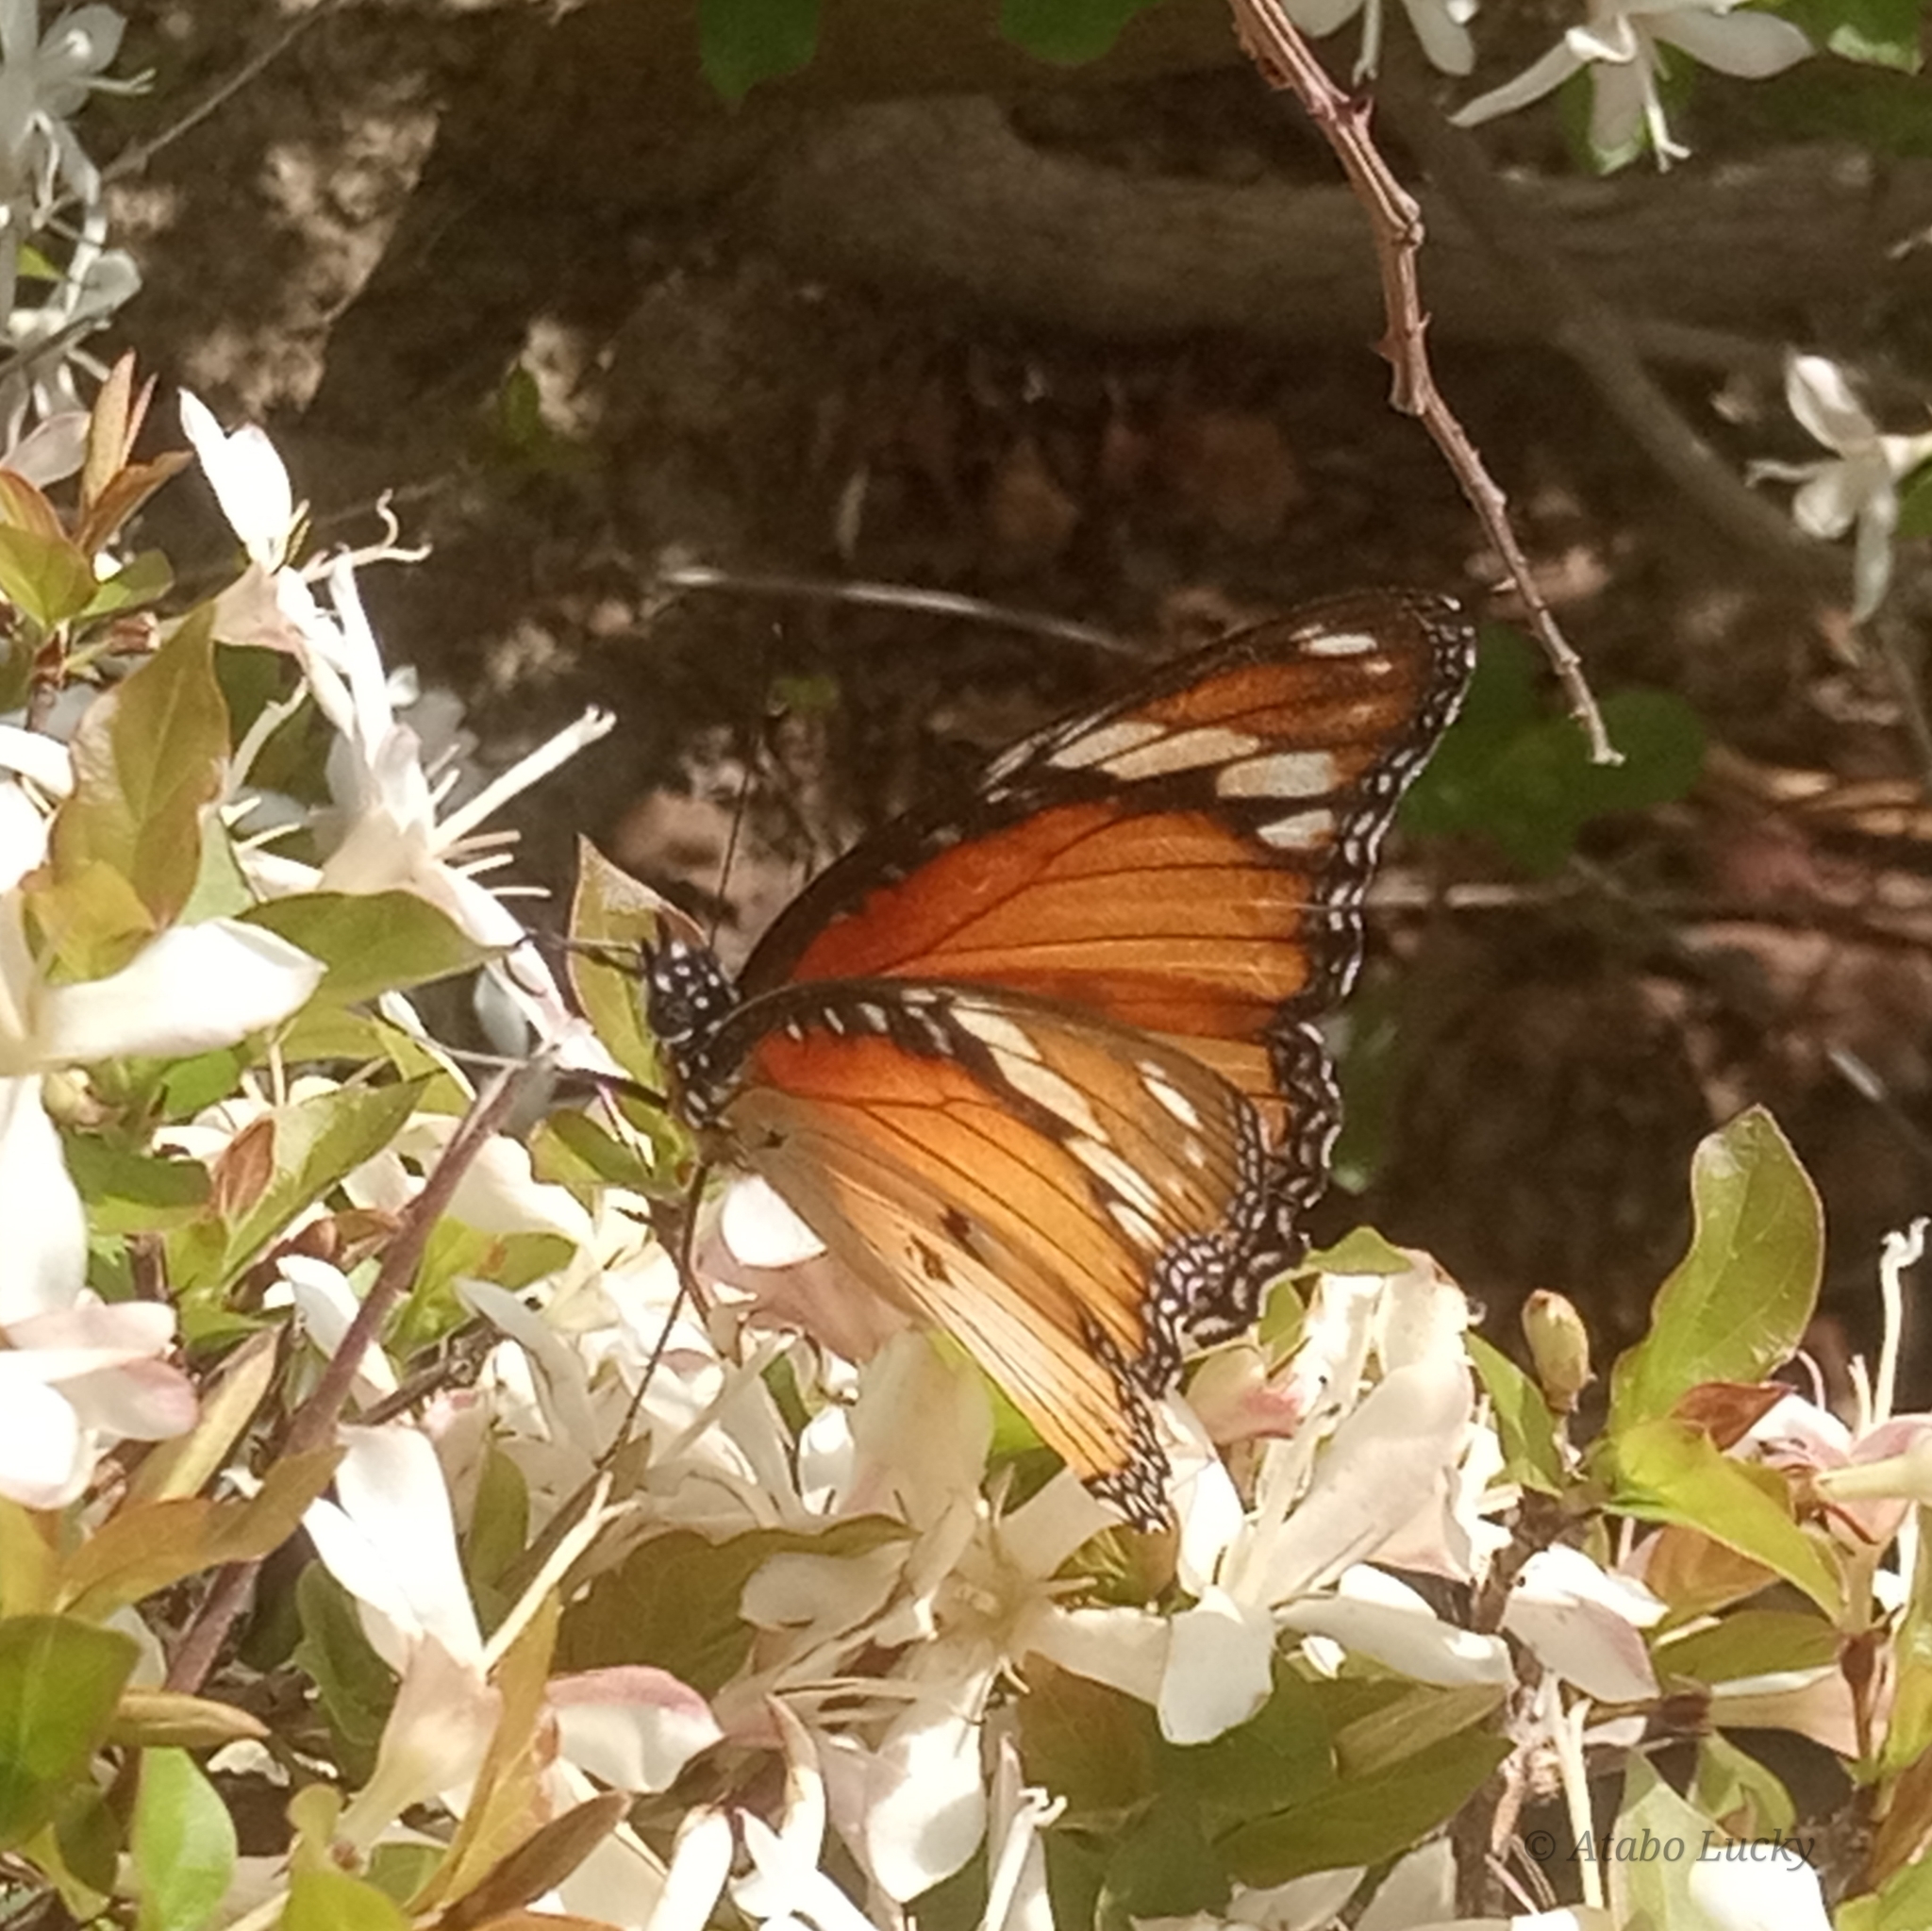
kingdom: Animalia
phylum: Arthropoda
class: Insecta
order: Lepidoptera
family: Nymphalidae
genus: Hypolimnas
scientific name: Hypolimnas misippus
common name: False plain tiger
